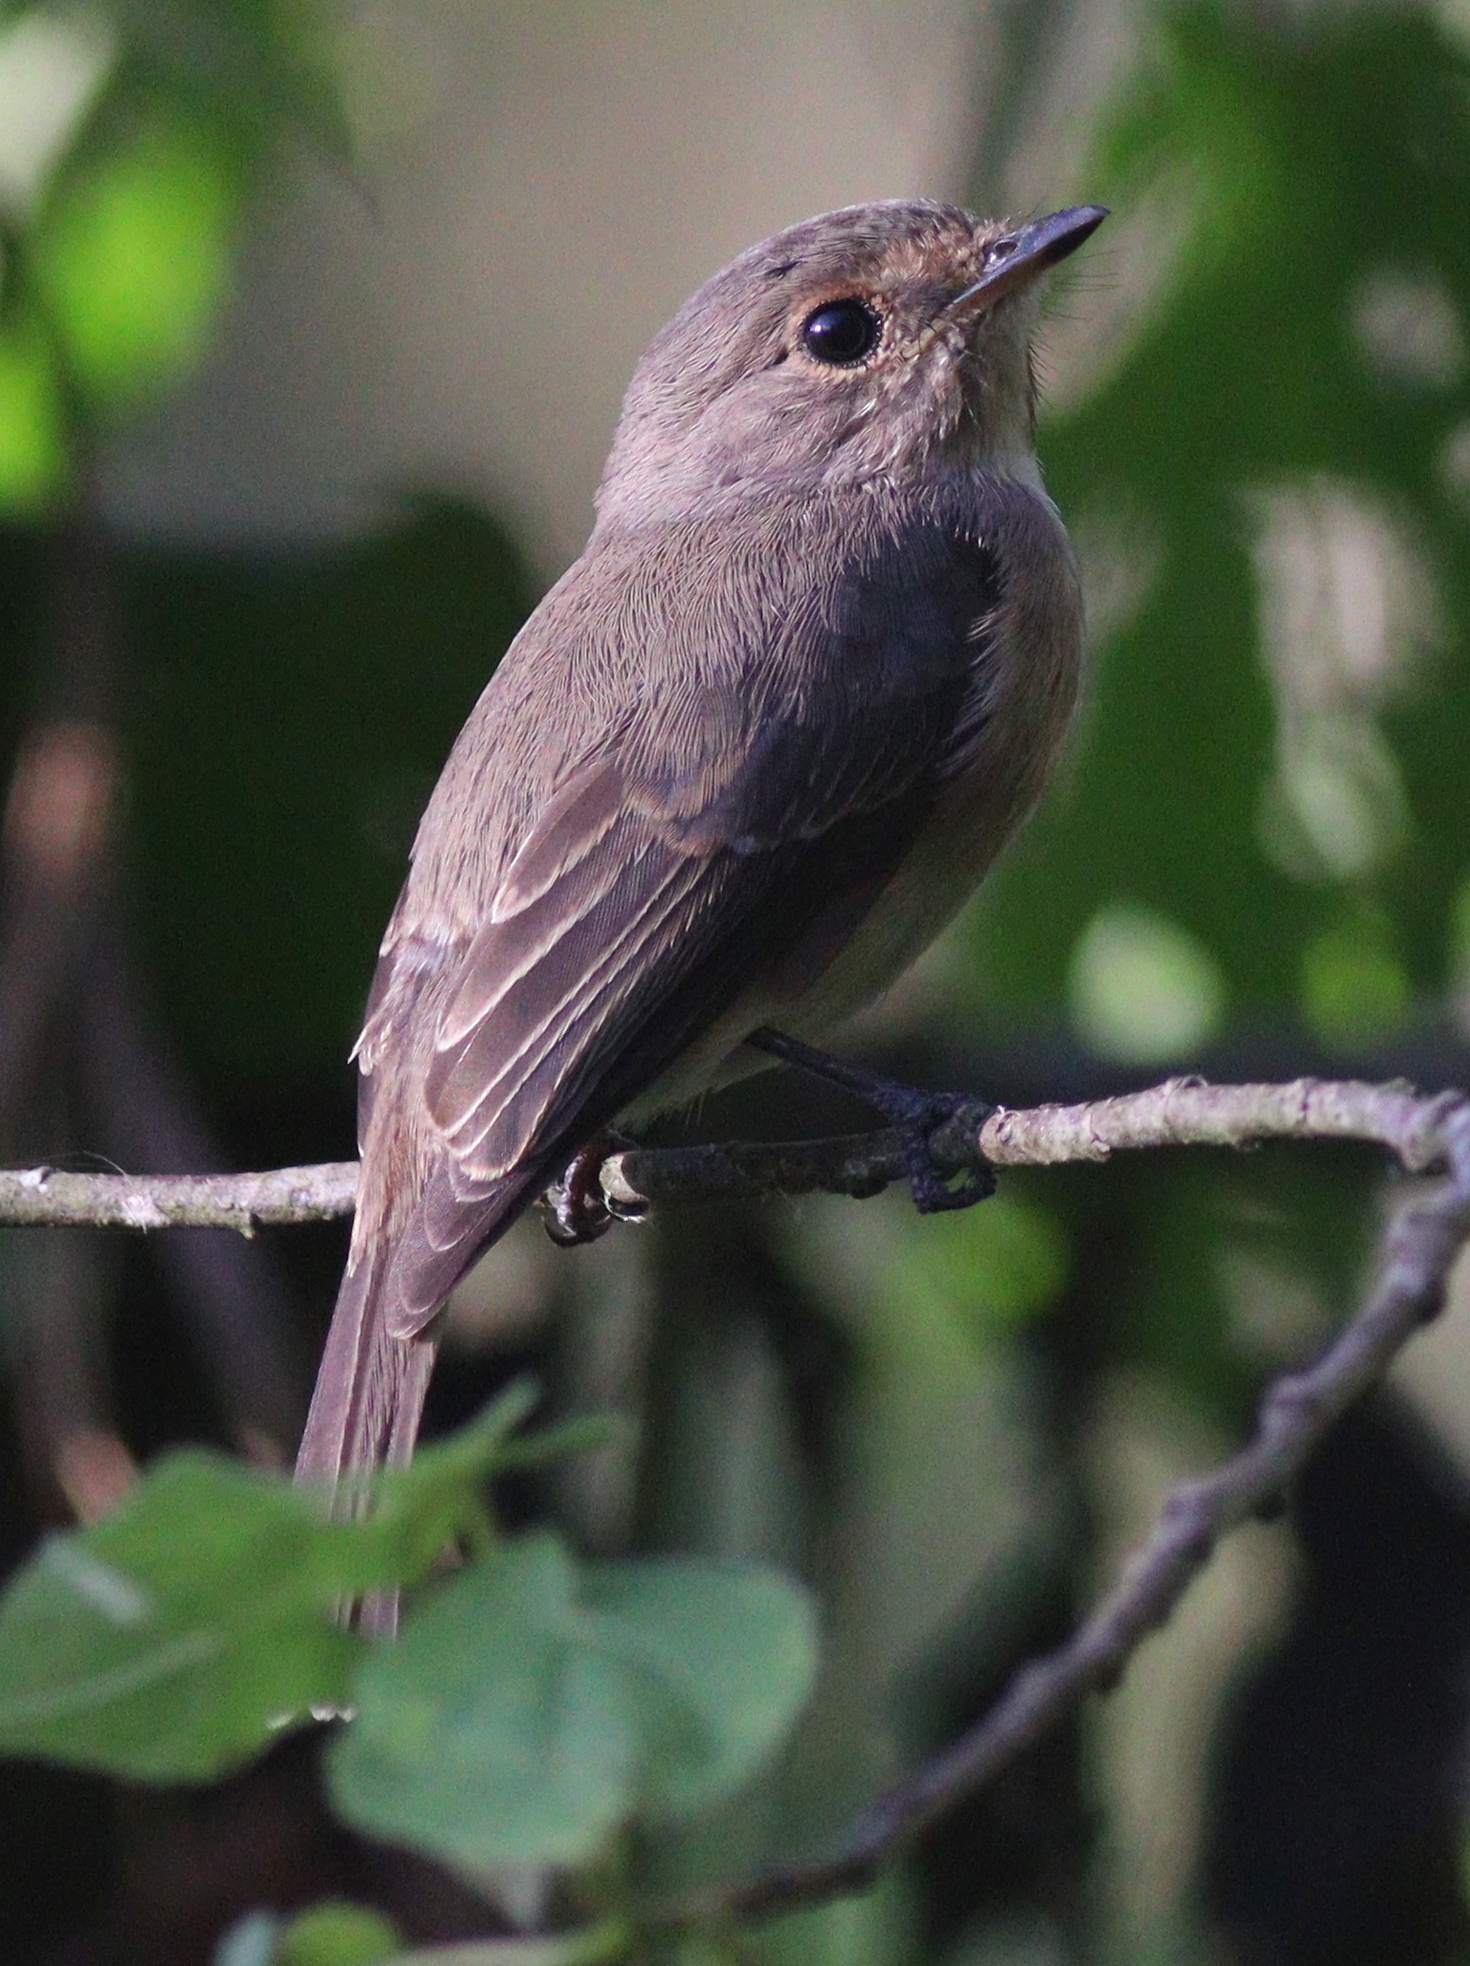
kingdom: Animalia
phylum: Chordata
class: Aves
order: Passeriformes
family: Muscicapidae
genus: Muscicapa
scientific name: Muscicapa adusta
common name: African dusky flycatcher
